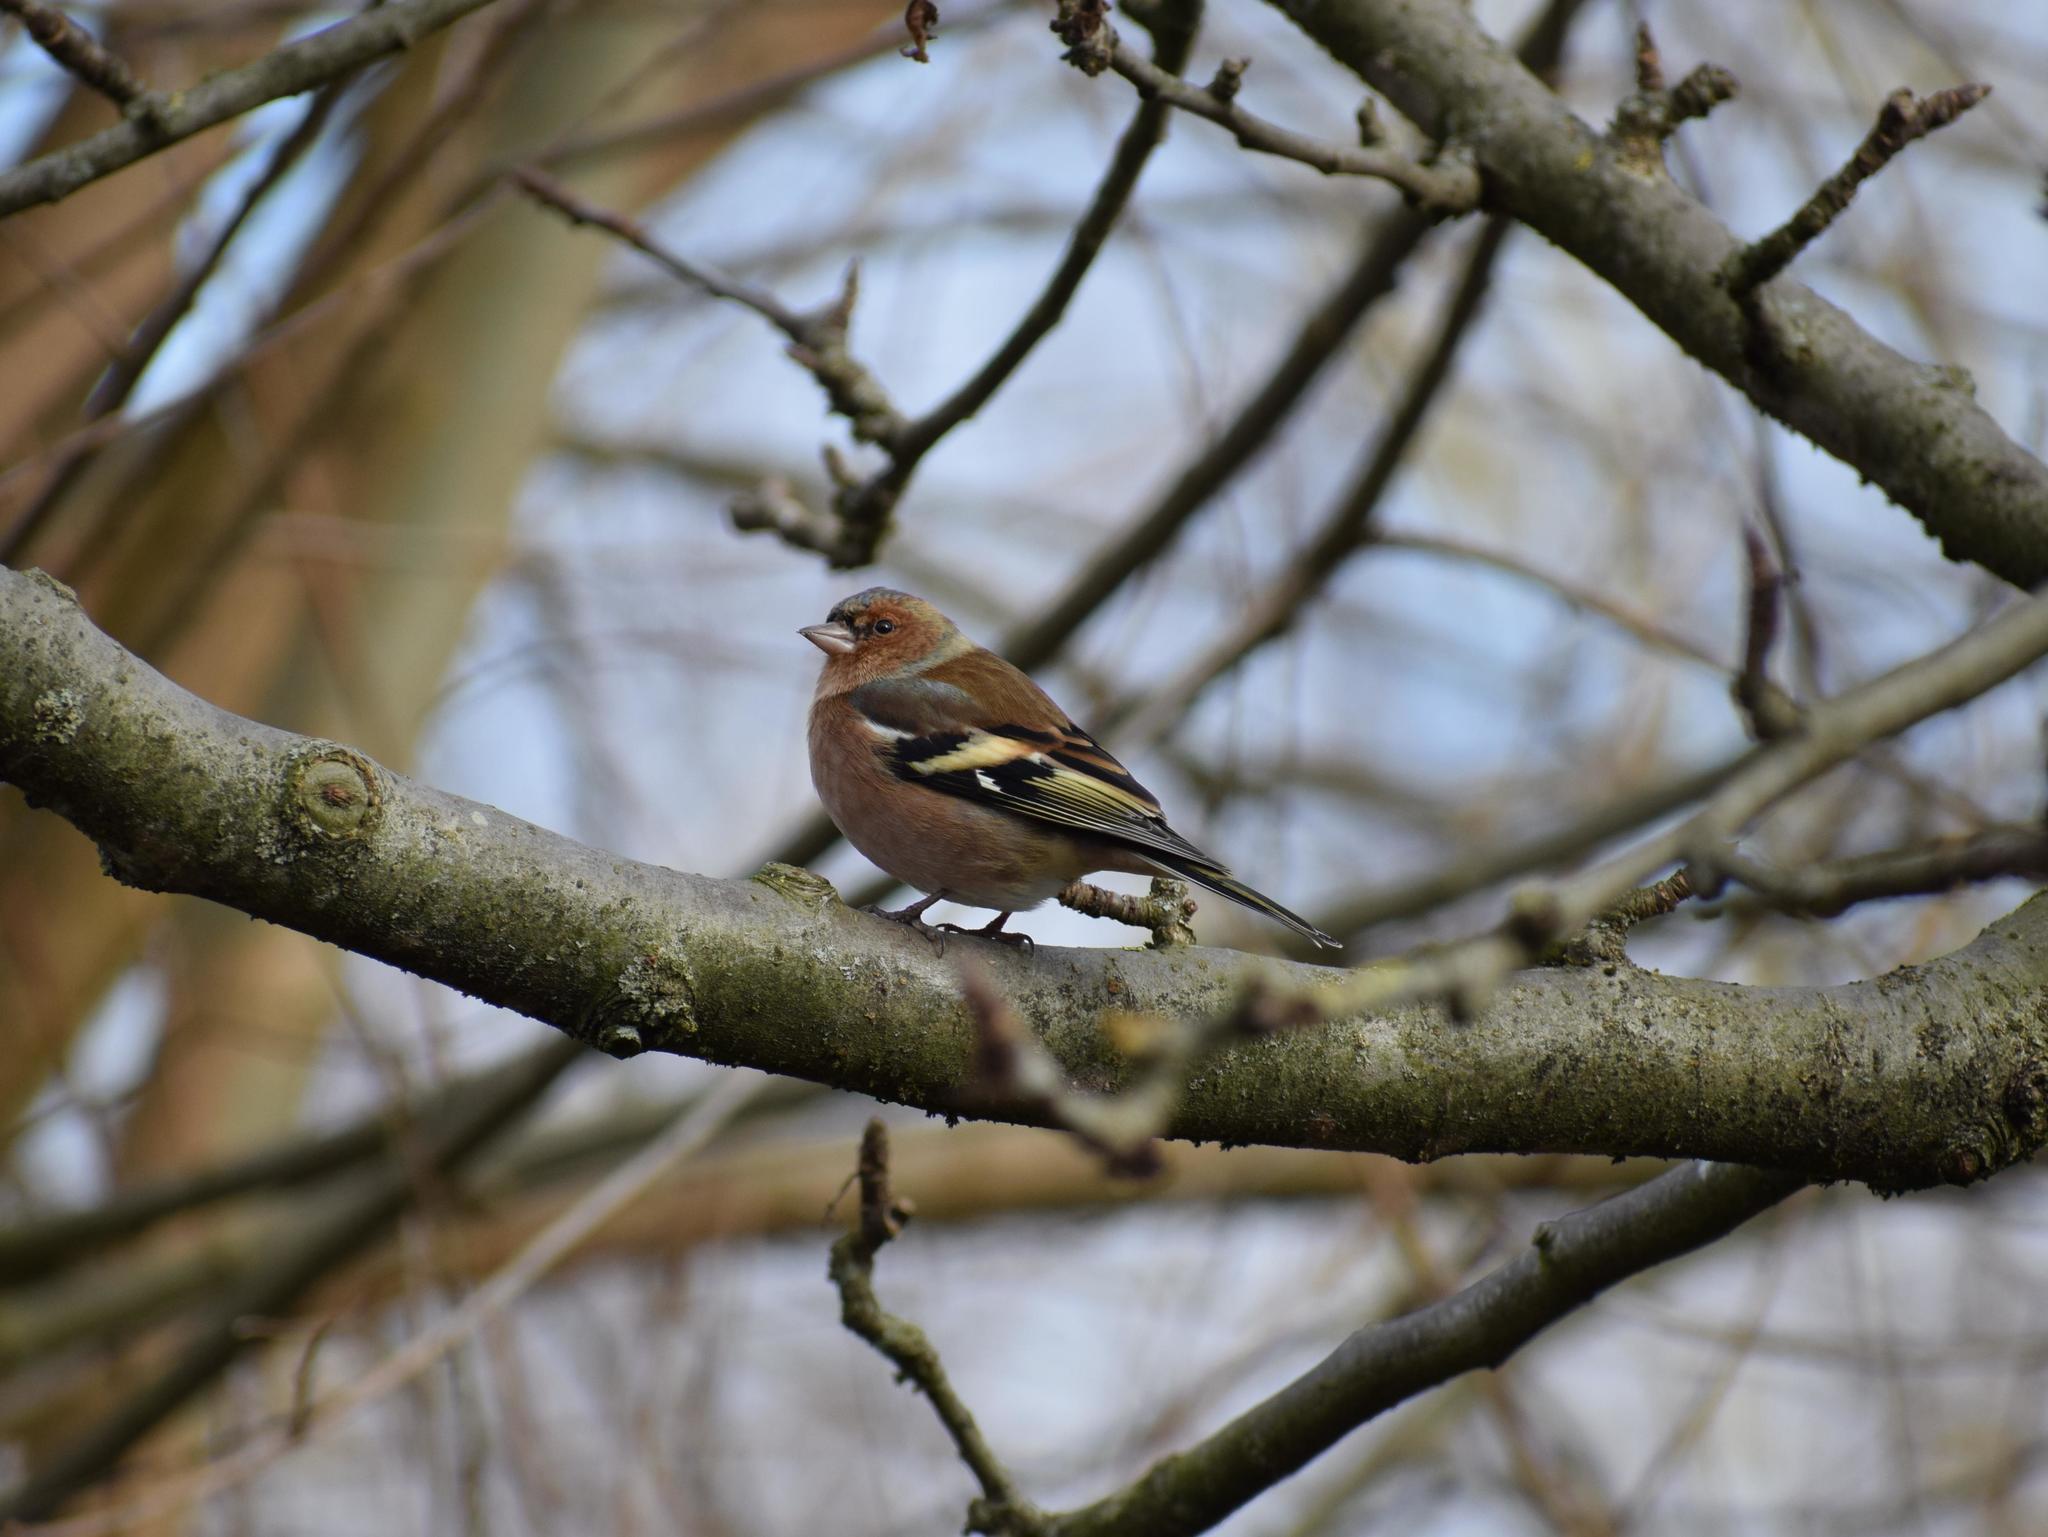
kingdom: Animalia
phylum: Chordata
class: Aves
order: Passeriformes
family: Fringillidae
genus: Fringilla
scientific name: Fringilla coelebs
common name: Common chaffinch
